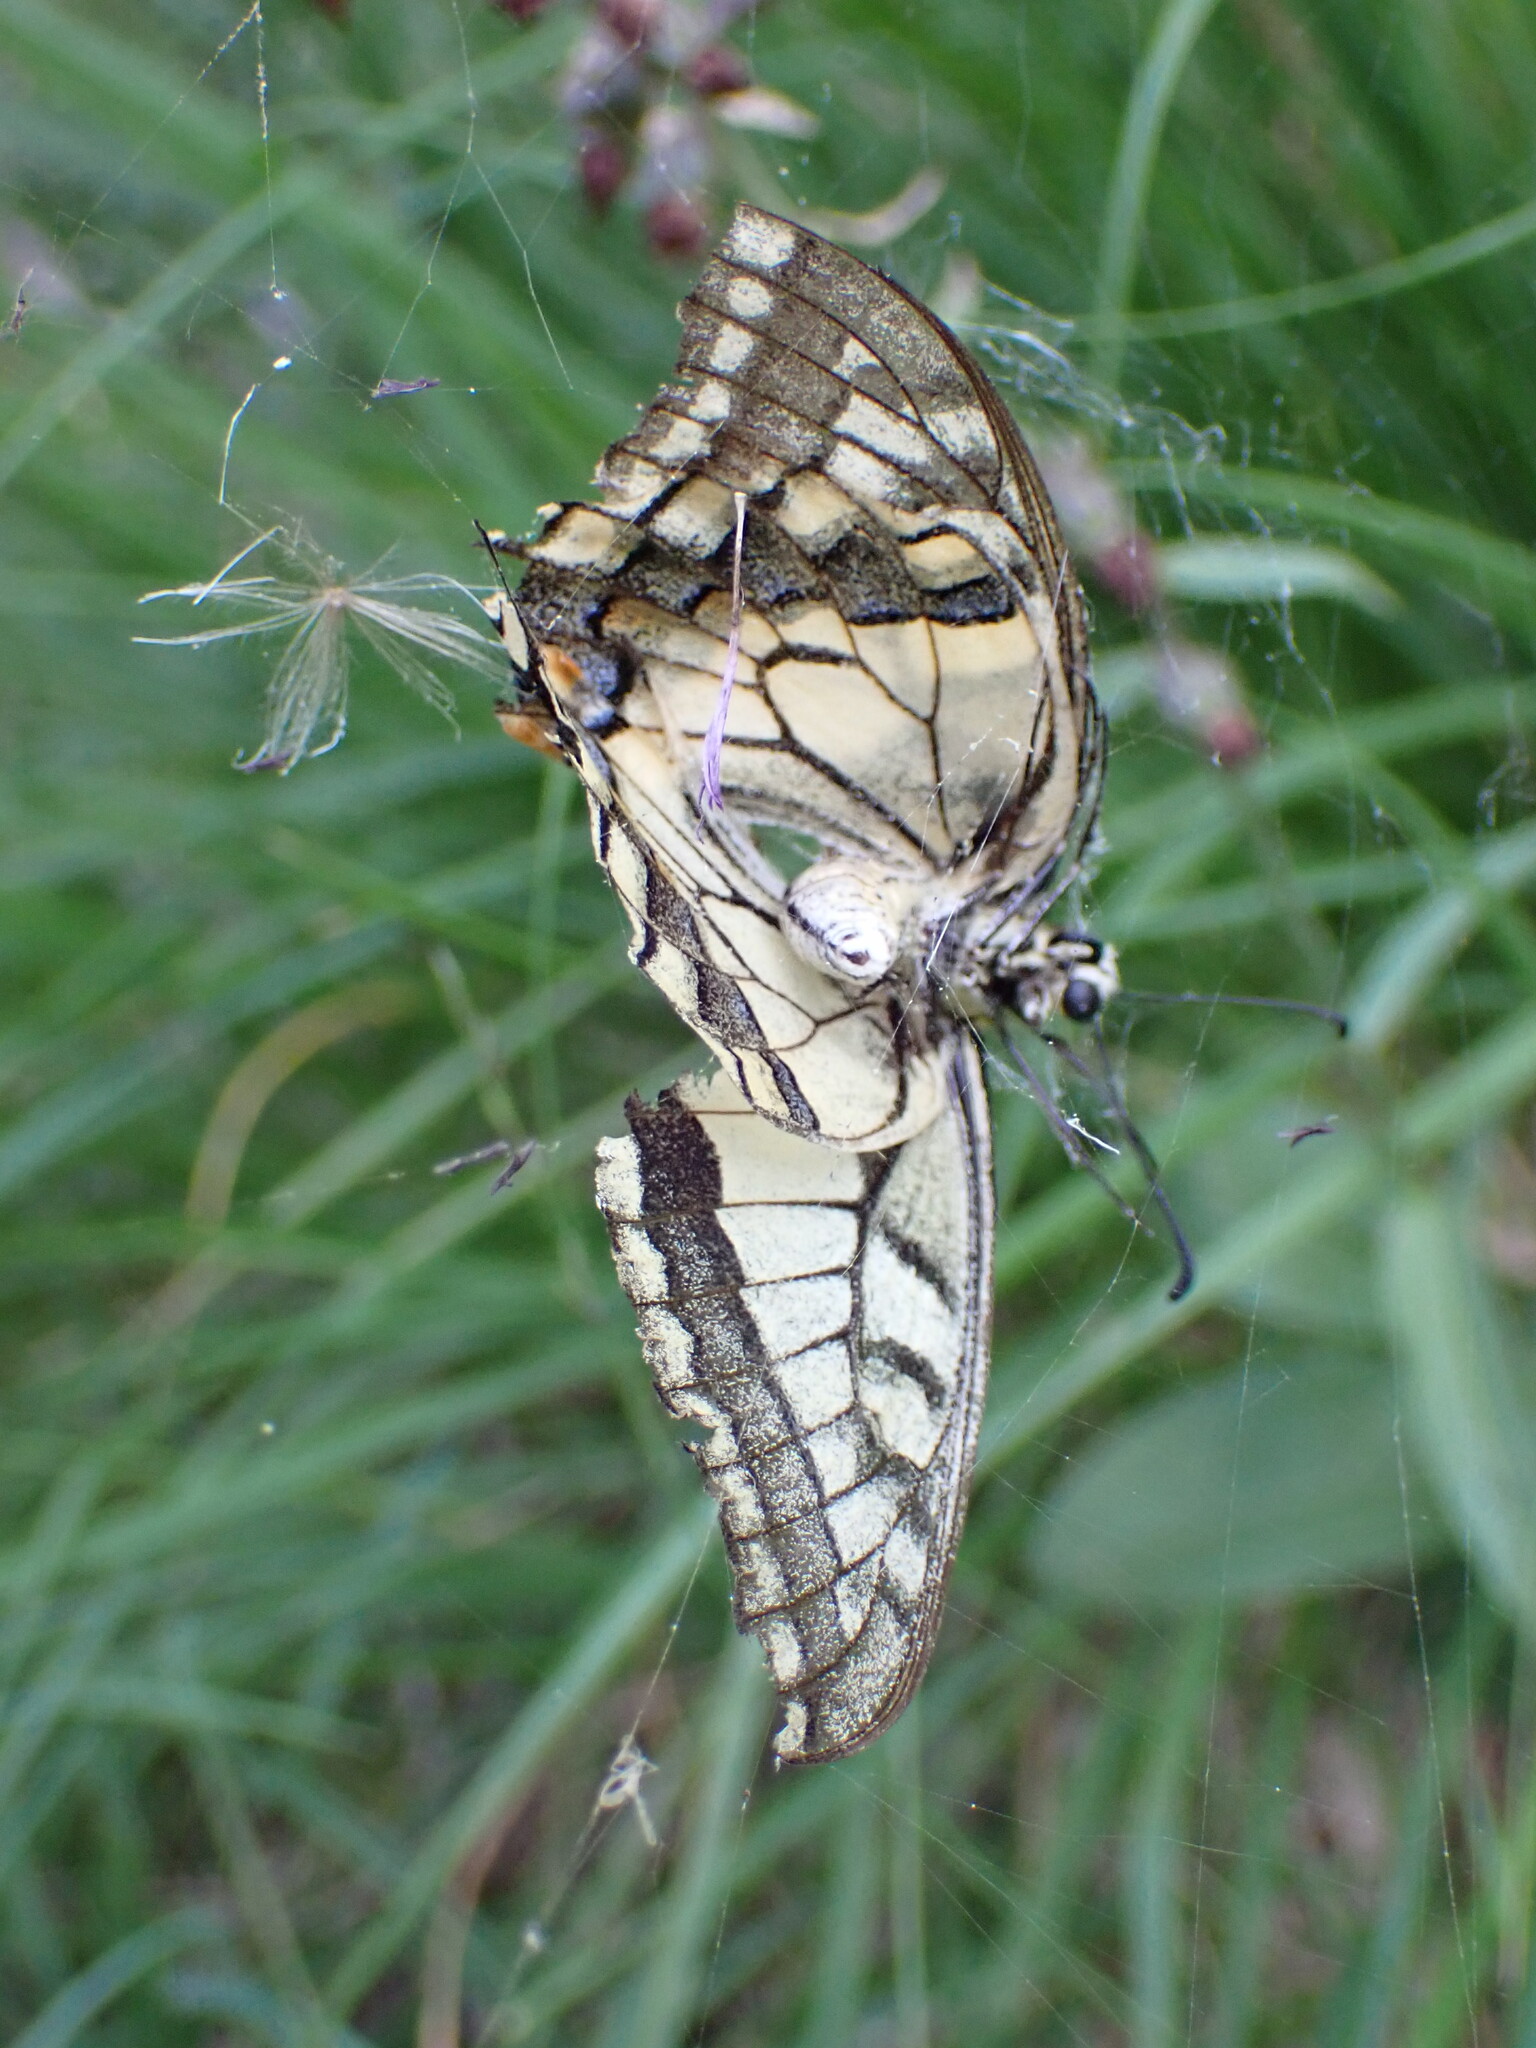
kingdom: Animalia
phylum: Arthropoda
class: Insecta
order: Lepidoptera
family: Papilionidae
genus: Papilio
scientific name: Papilio machaon
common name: Swallowtail
